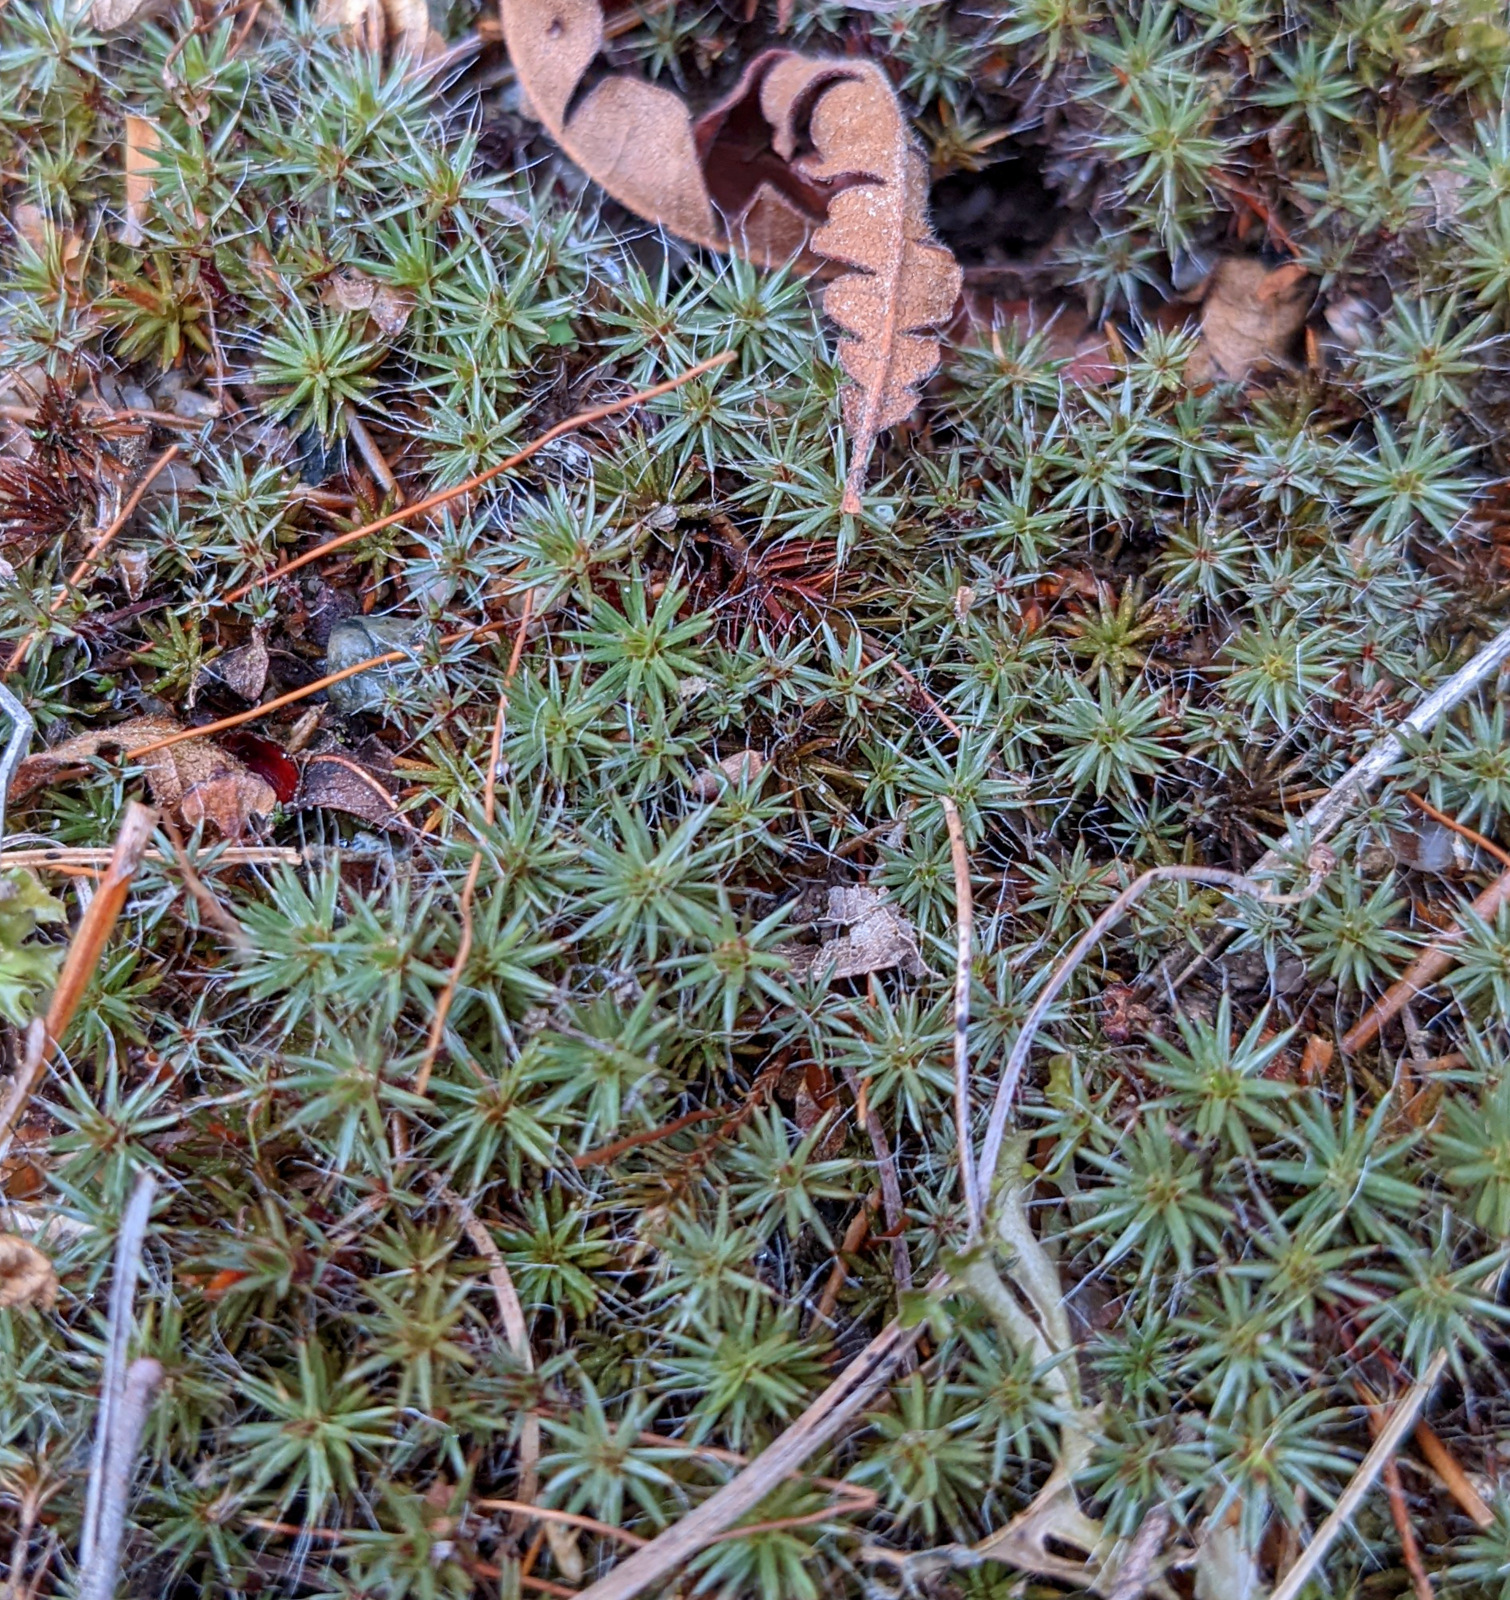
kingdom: Plantae
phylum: Bryophyta
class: Polytrichopsida
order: Polytrichales
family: Polytrichaceae
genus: Polytrichum
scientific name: Polytrichum piliferum
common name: Bristly haircap
